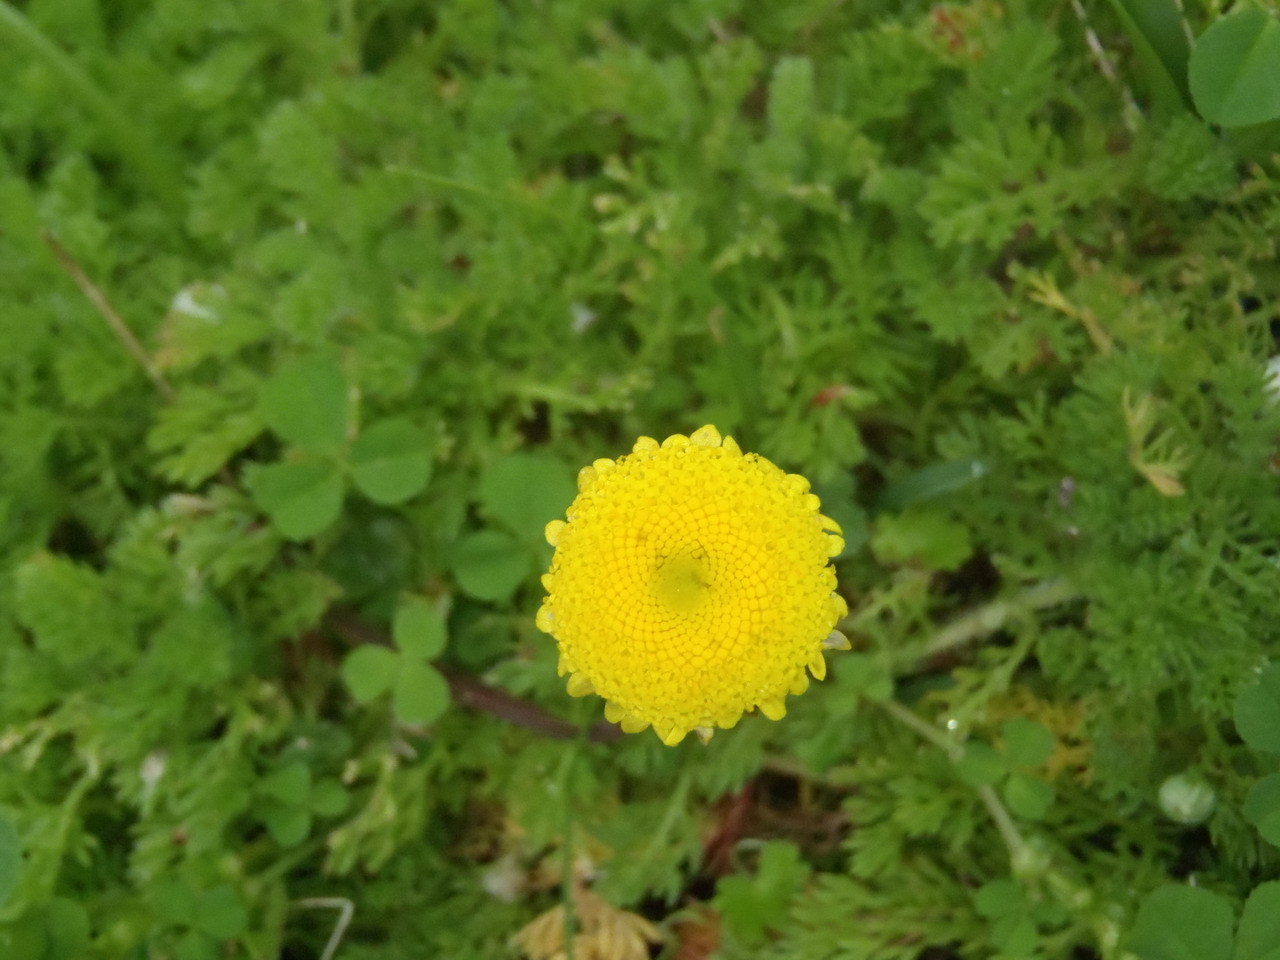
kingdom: Plantae
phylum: Tracheophyta
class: Magnoliopsida
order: Asterales
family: Asteraceae
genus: Cotula
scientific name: Cotula discolor
